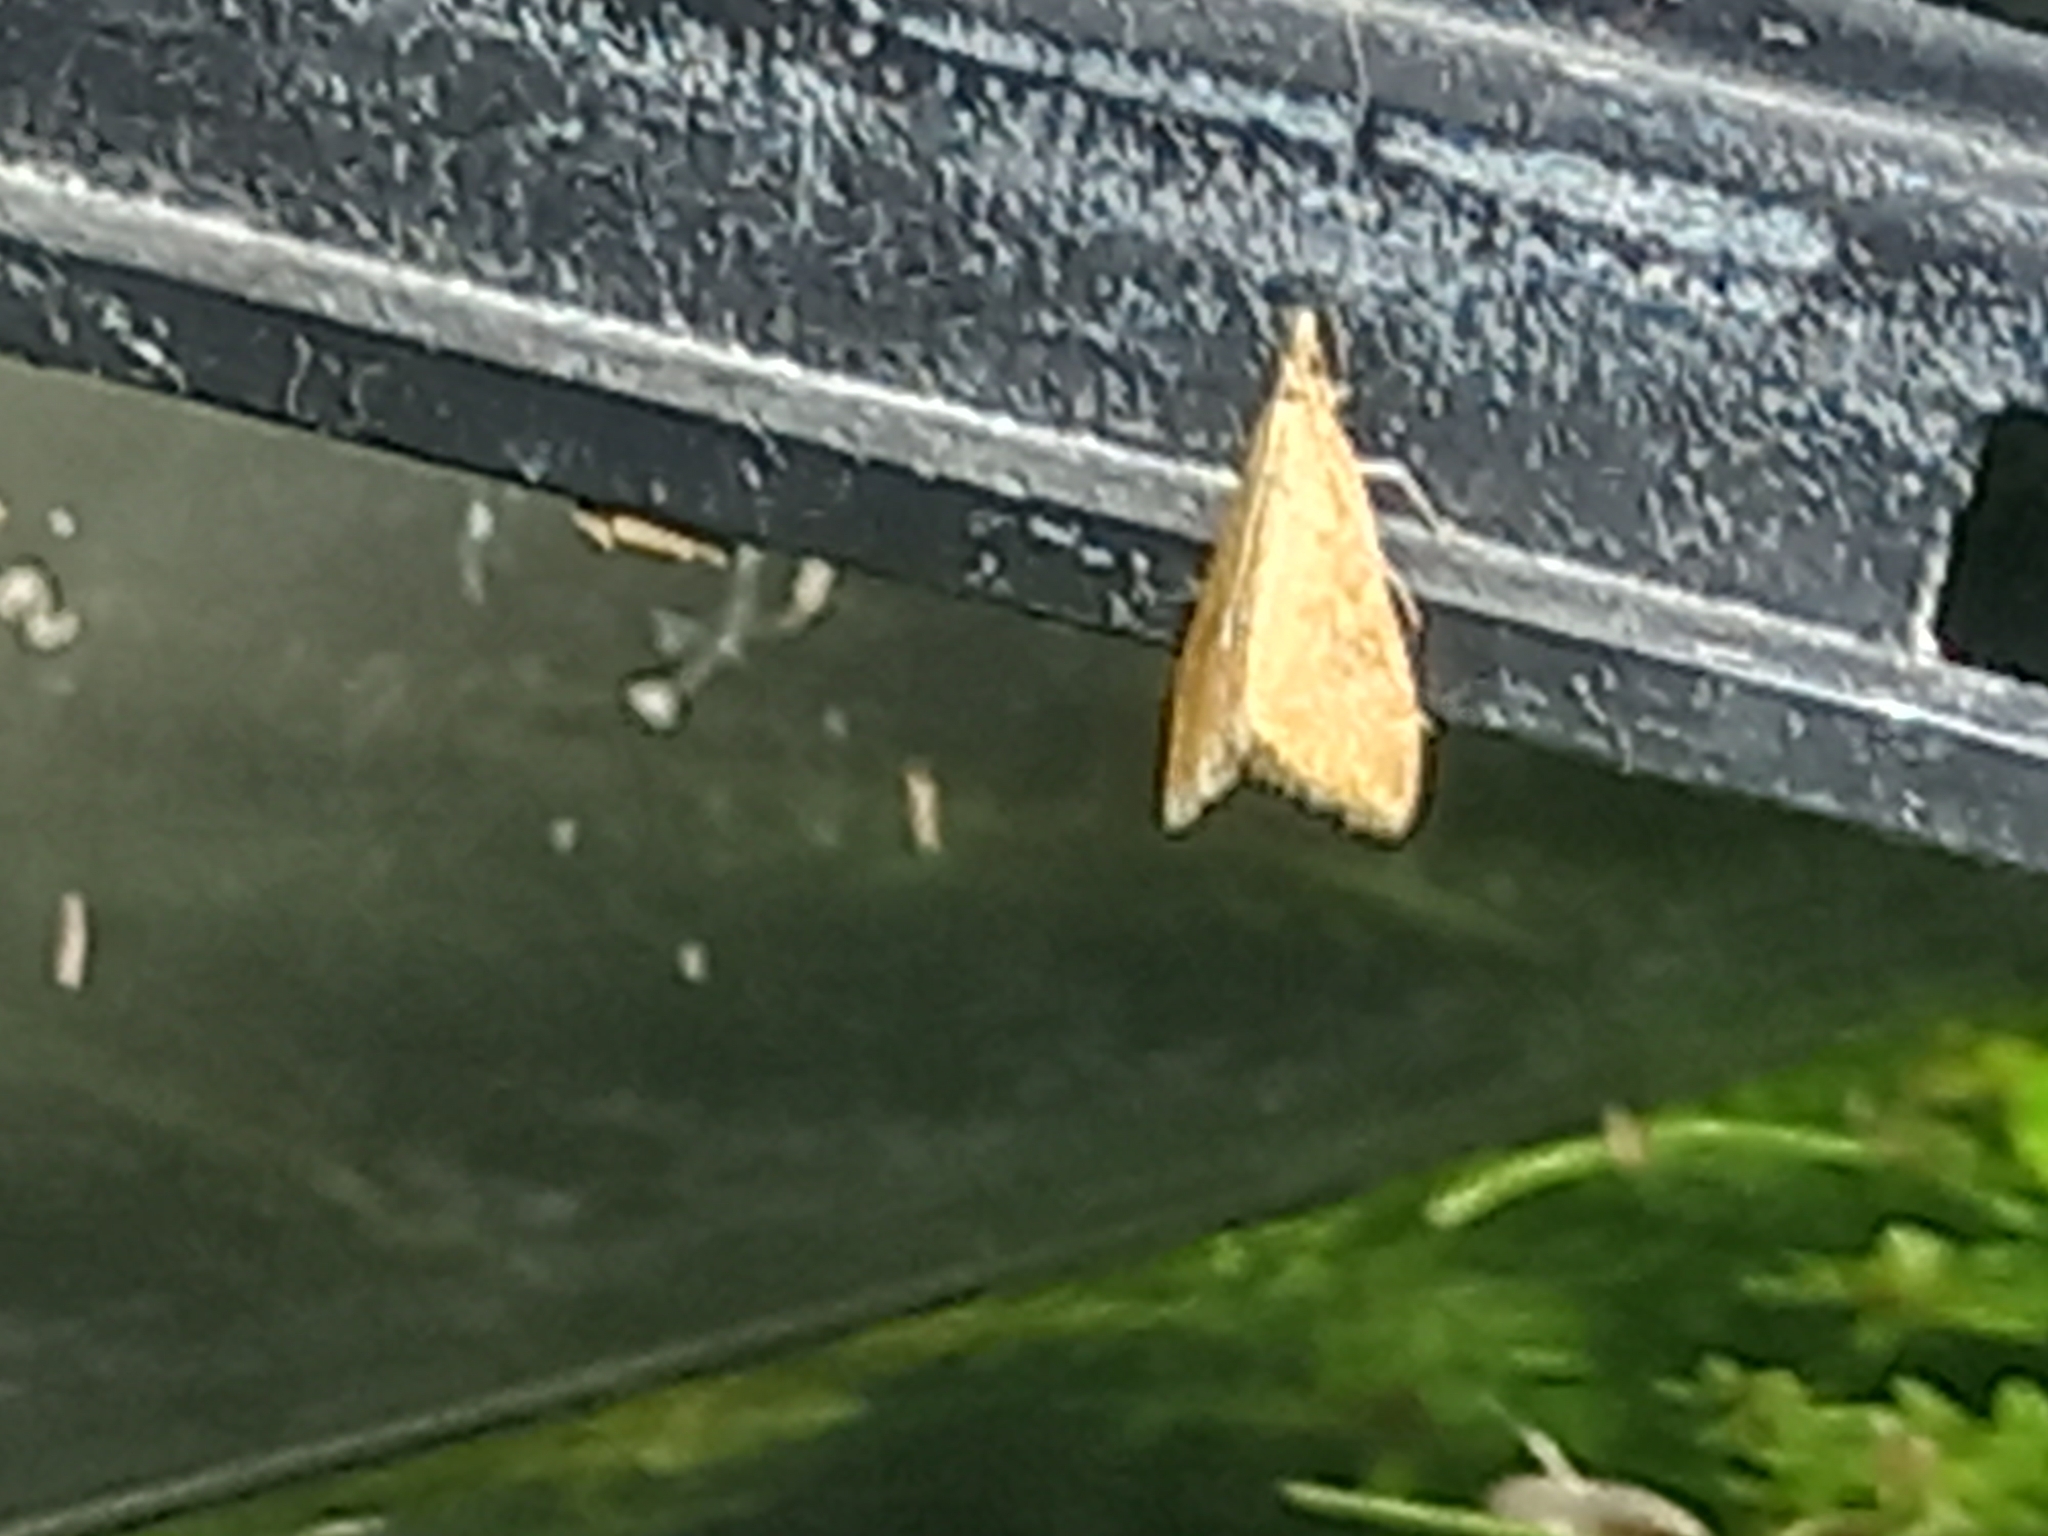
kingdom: Animalia
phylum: Arthropoda
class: Insecta
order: Lepidoptera
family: Crambidae
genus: Udea
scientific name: Udea ferrugalis
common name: Rusty dot
